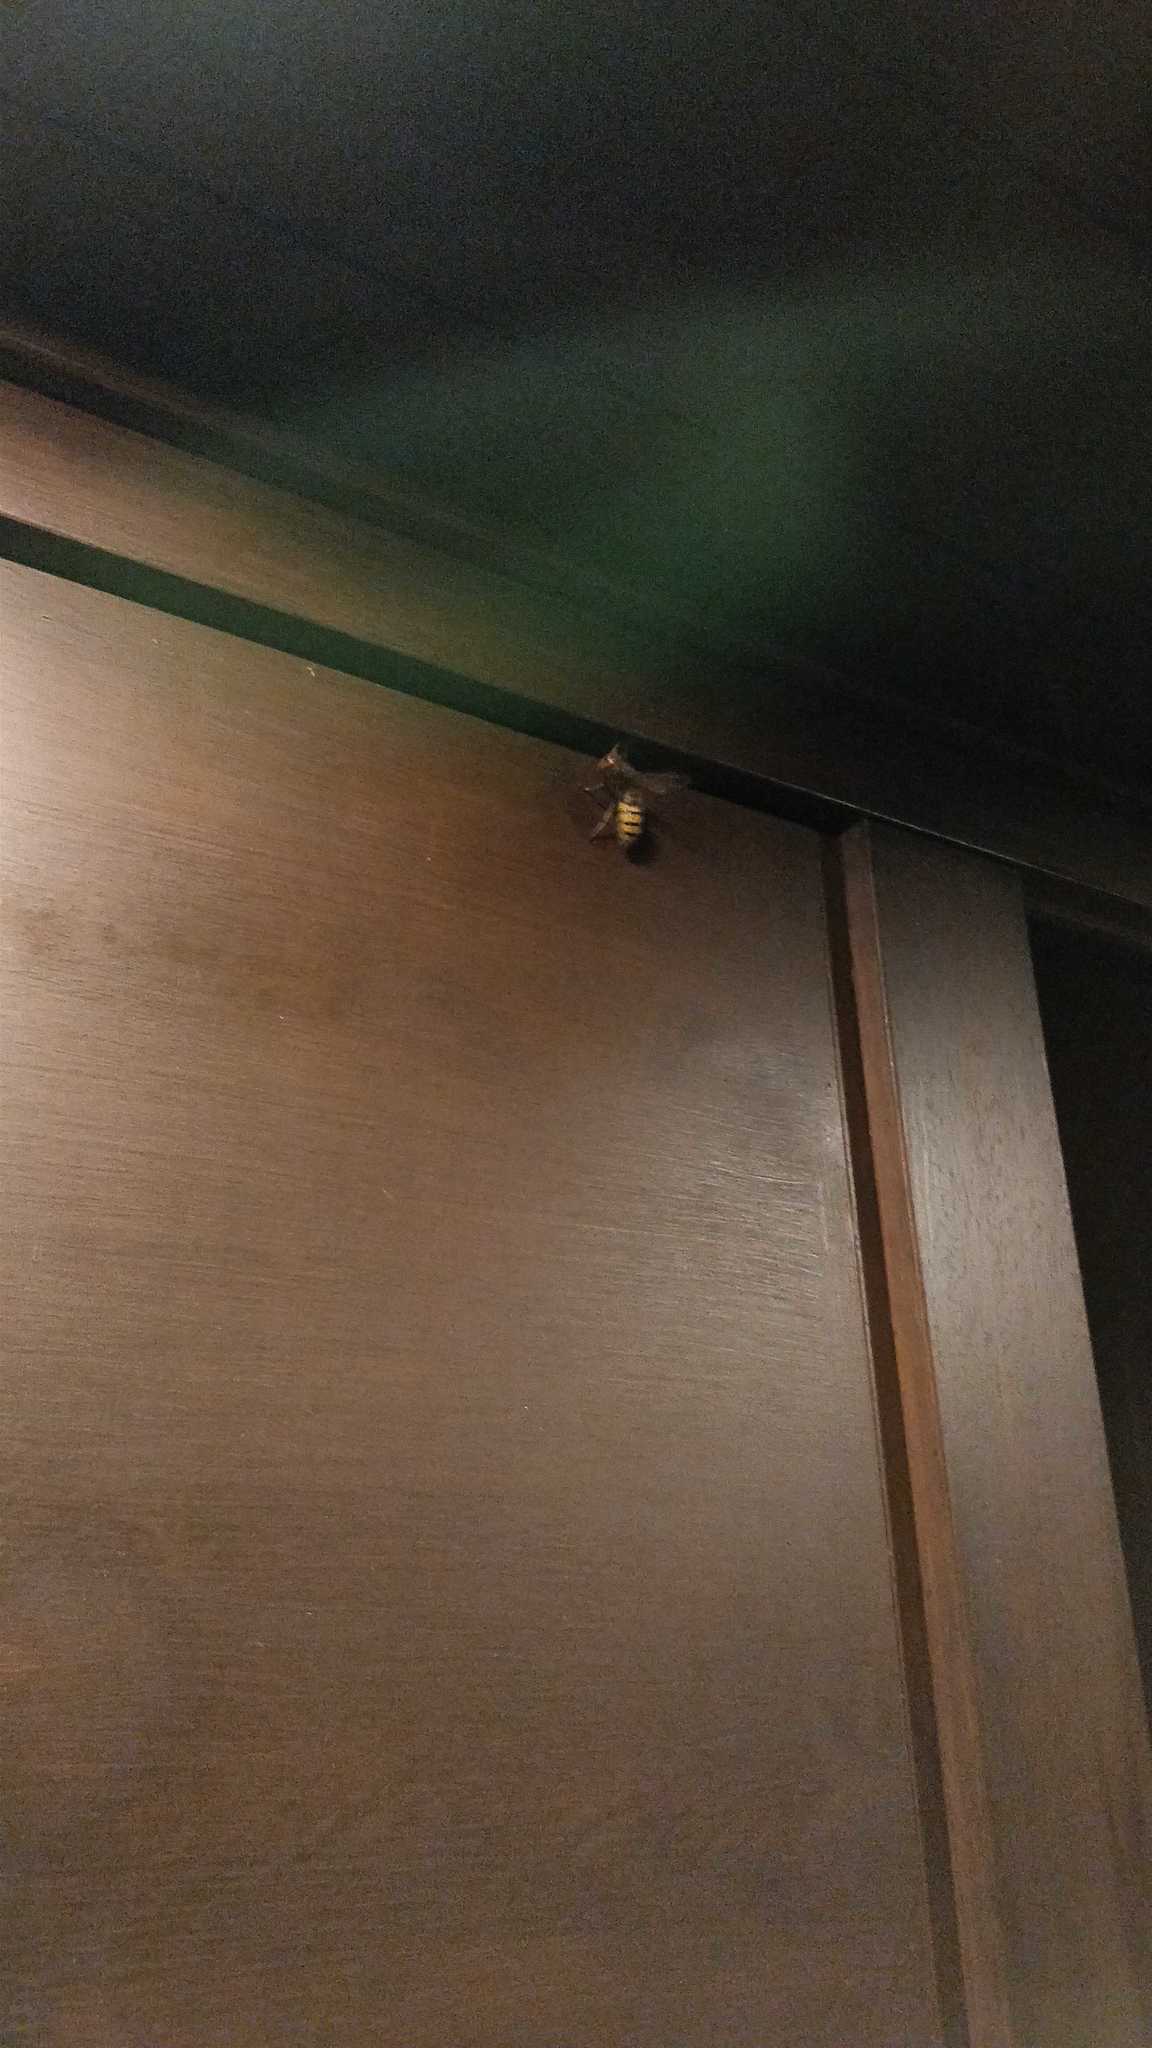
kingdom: Animalia
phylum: Arthropoda
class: Insecta
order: Hymenoptera
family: Vespidae
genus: Vespa
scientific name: Vespa crabro
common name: Hornet
